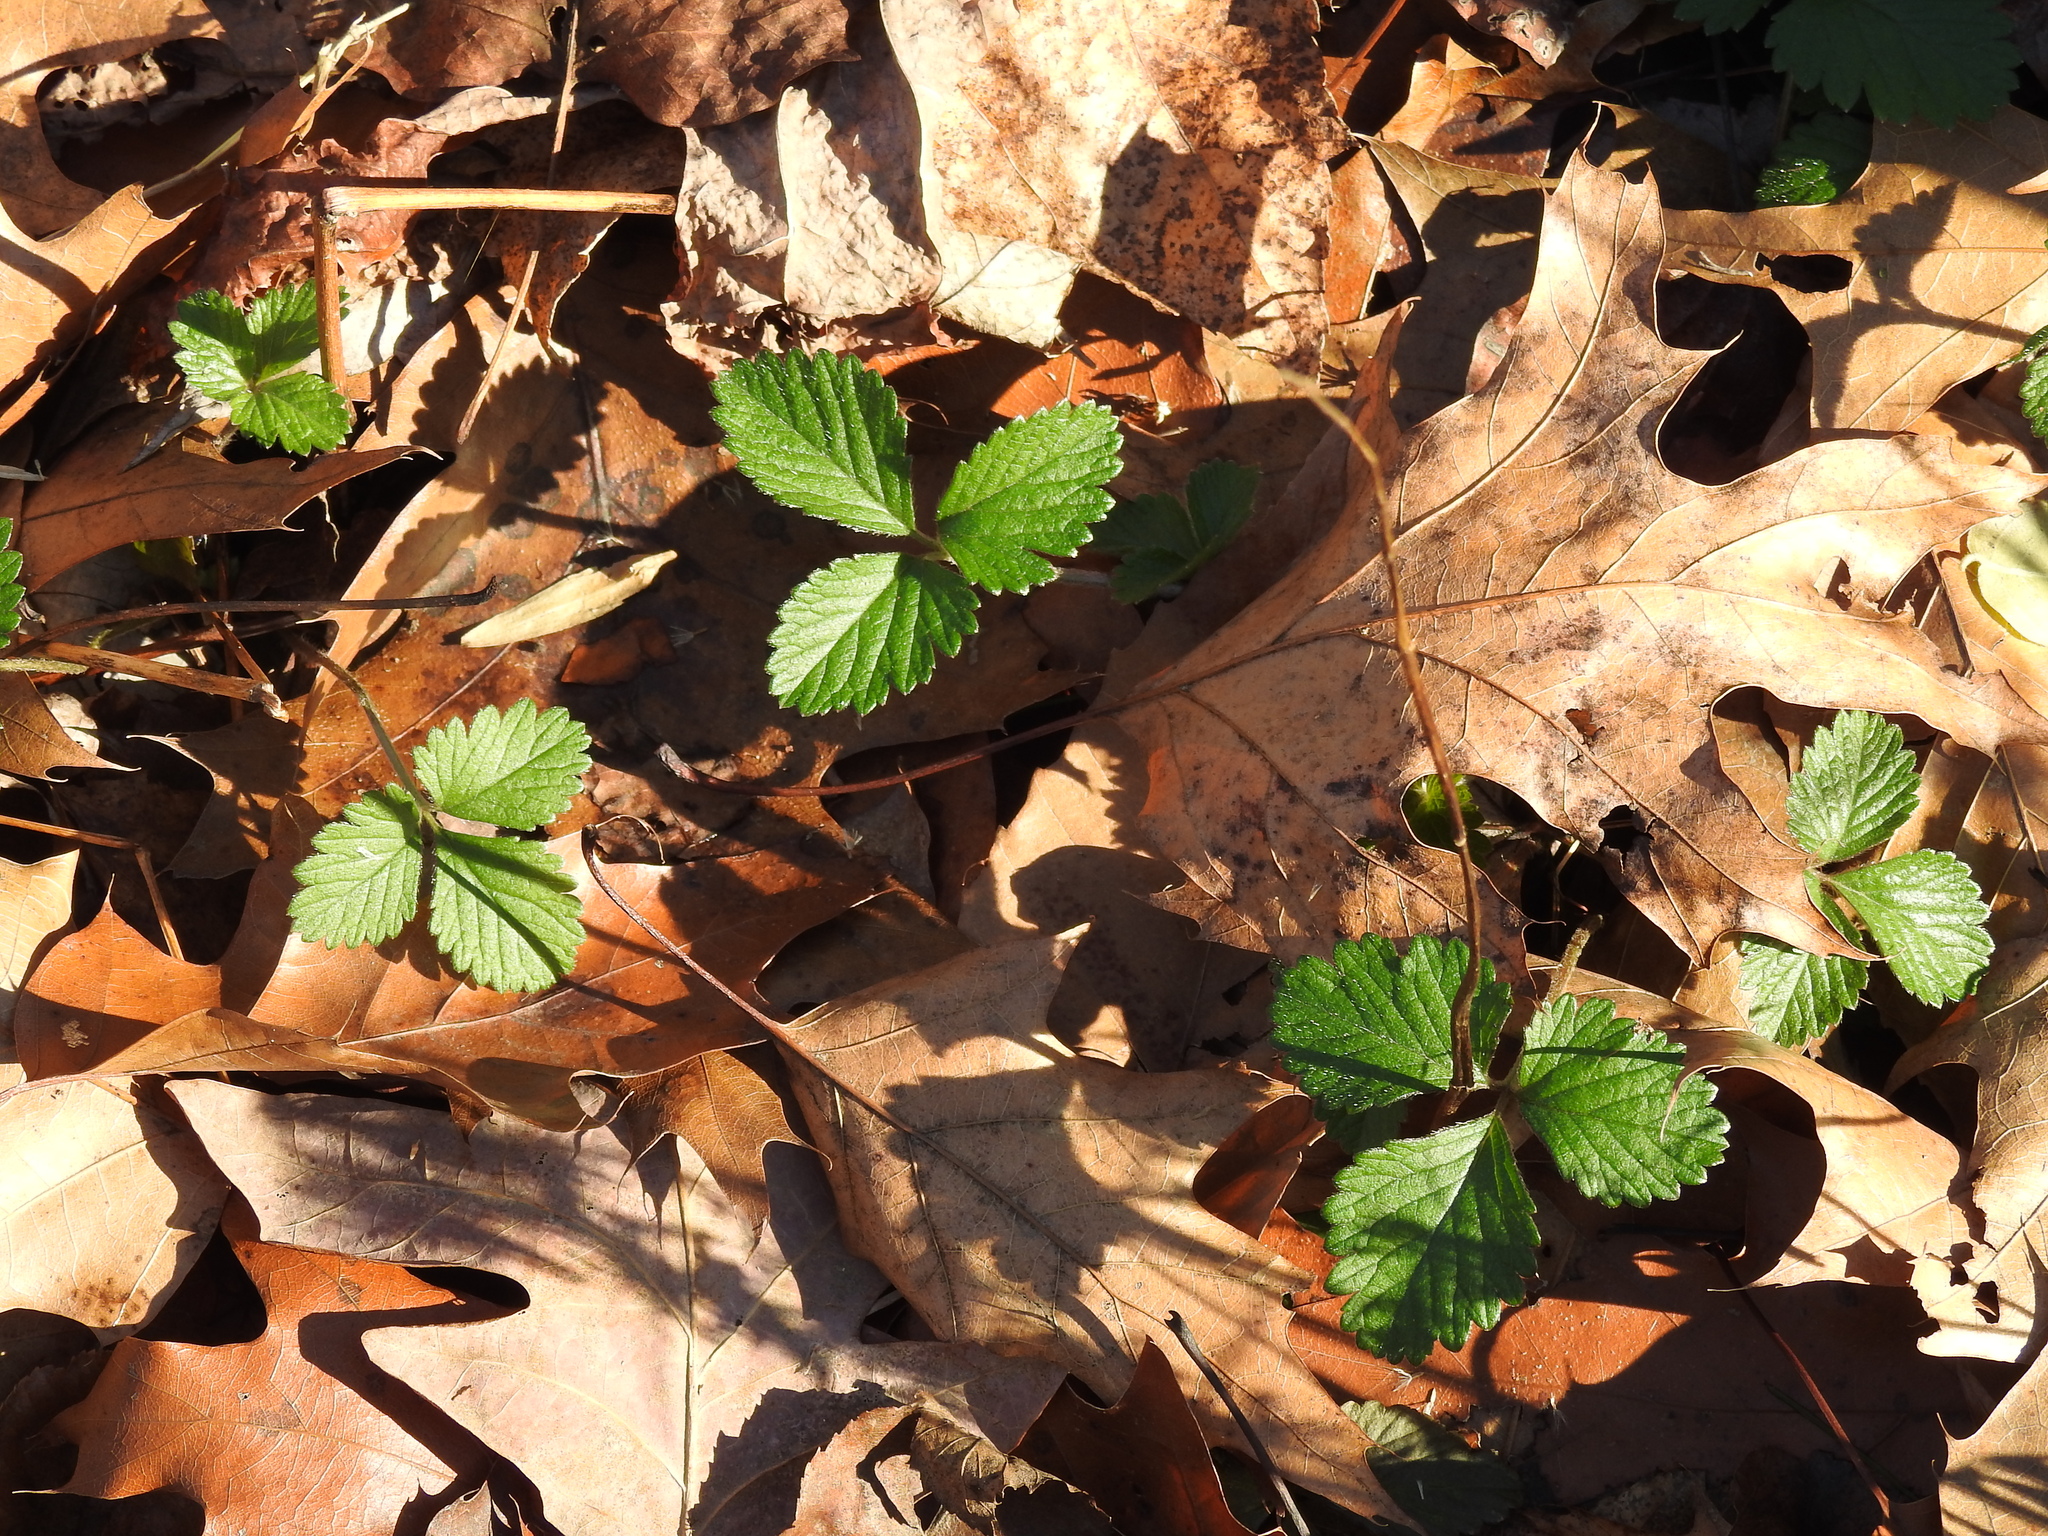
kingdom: Plantae
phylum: Tracheophyta
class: Magnoliopsida
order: Rosales
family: Rosaceae
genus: Potentilla
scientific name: Potentilla indica
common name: Yellow-flowered strawberry
